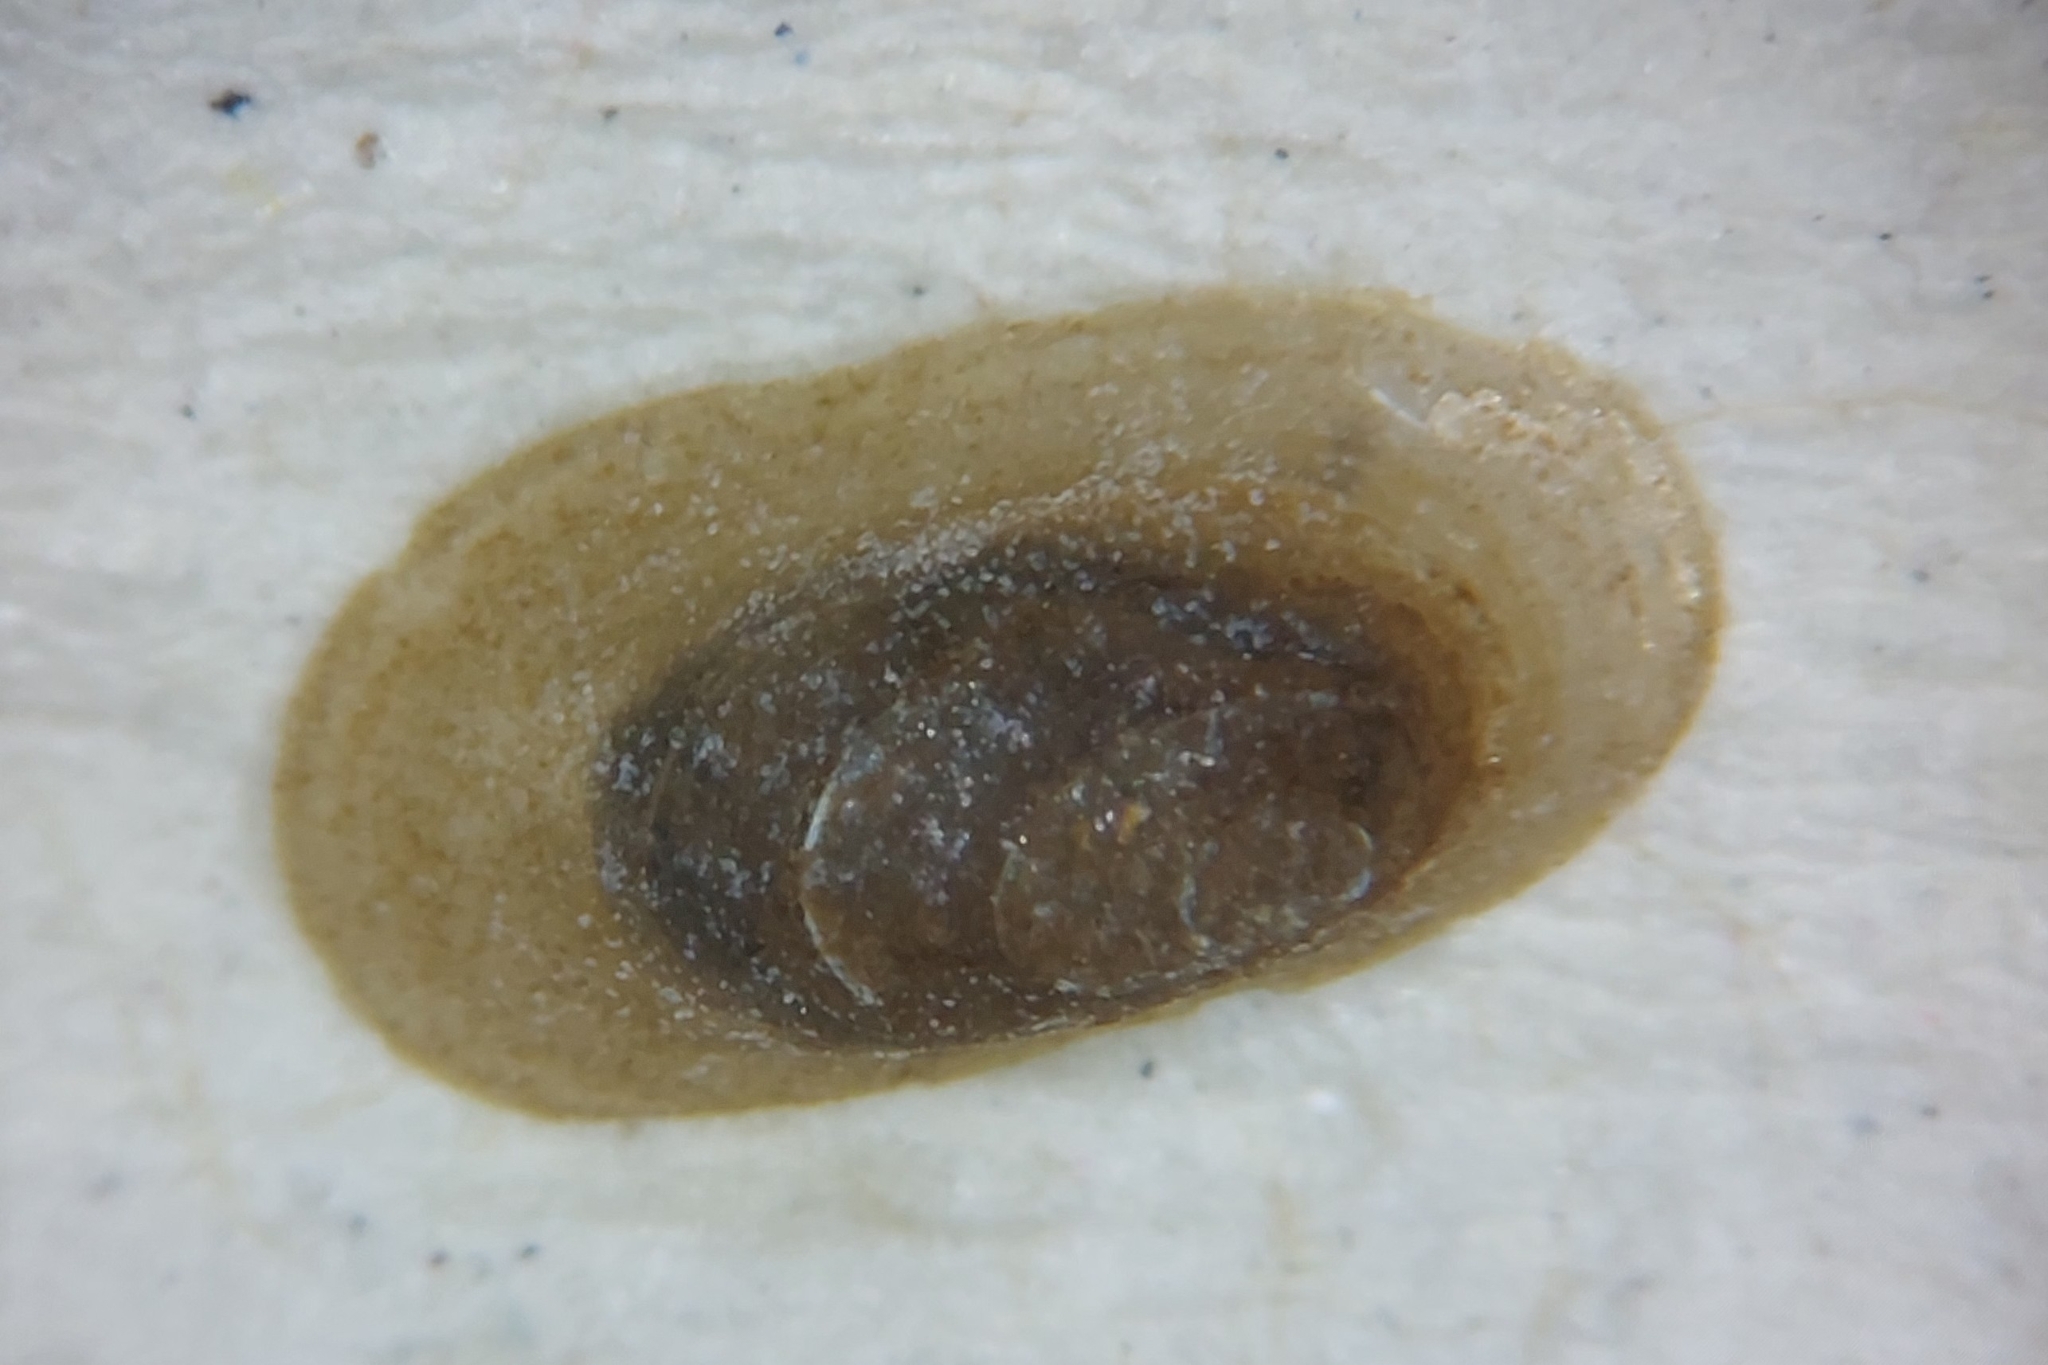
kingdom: Animalia
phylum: Mollusca
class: Gastropoda
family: Acroloxidae
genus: Acroloxus
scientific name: Acroloxus lacustris
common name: Lake limpet
